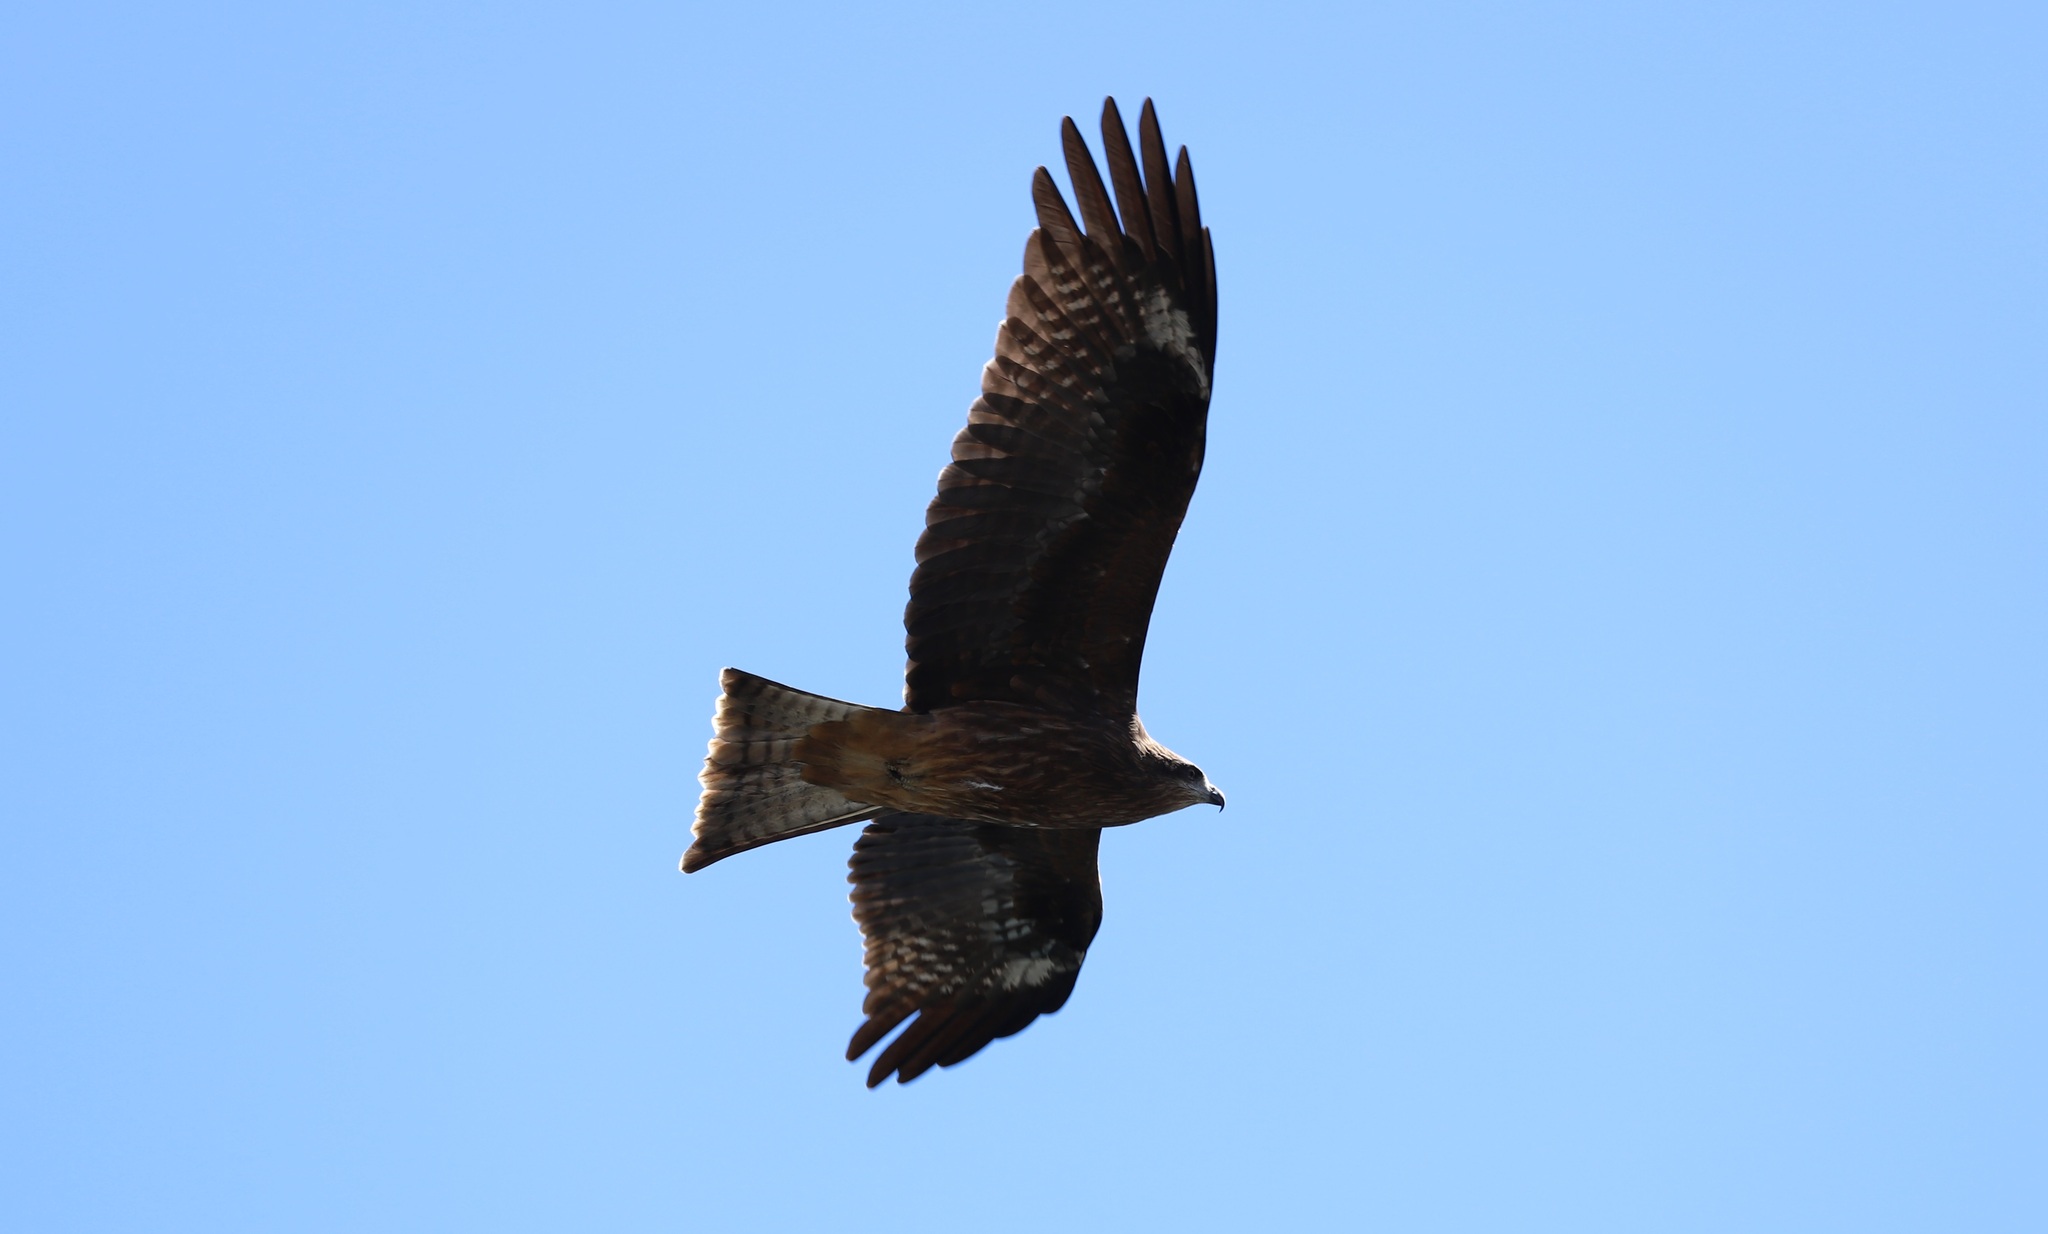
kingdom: Animalia
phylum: Chordata
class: Aves
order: Accipitriformes
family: Accipitridae
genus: Milvus
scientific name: Milvus migrans
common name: Black kite
